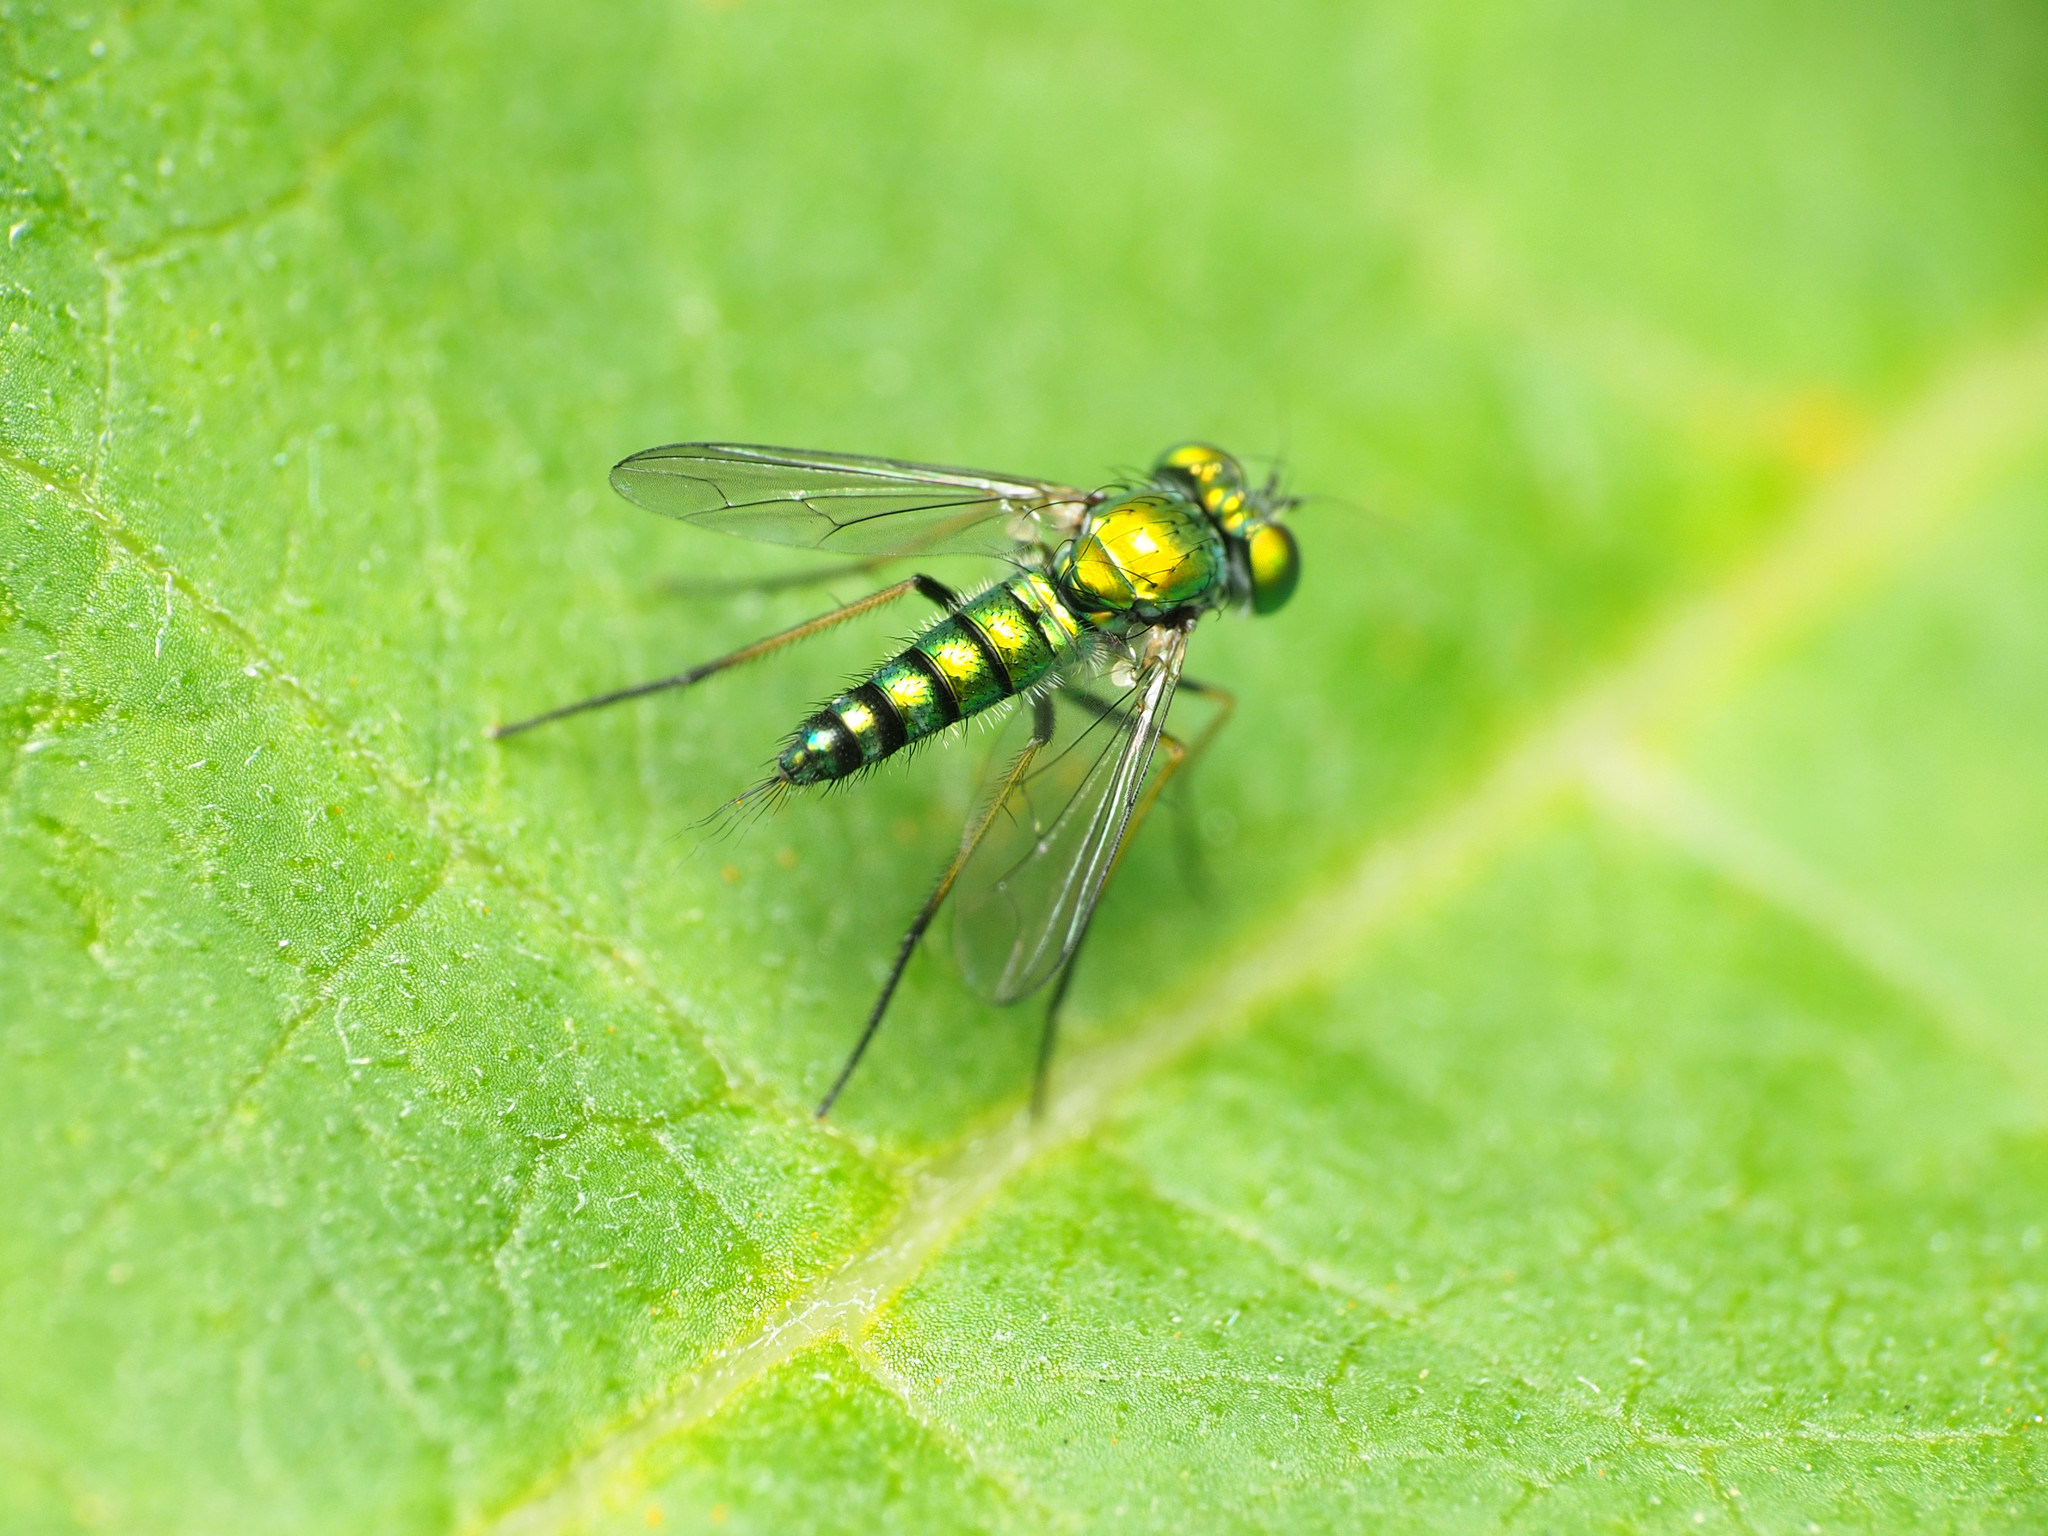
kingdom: Animalia
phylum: Arthropoda
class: Insecta
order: Diptera
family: Dolichopodidae
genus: Condylostylus
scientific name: Condylostylus caudatus
